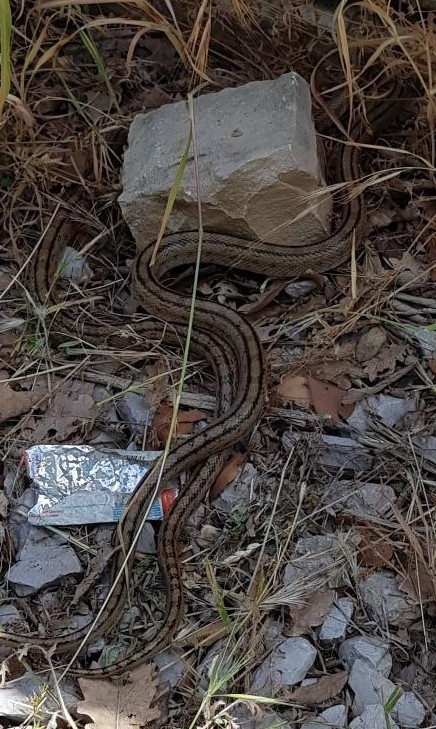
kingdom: Animalia
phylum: Chordata
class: Squamata
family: Colubridae
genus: Zamenis
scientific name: Zamenis scalaris
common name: Ladder snakes
